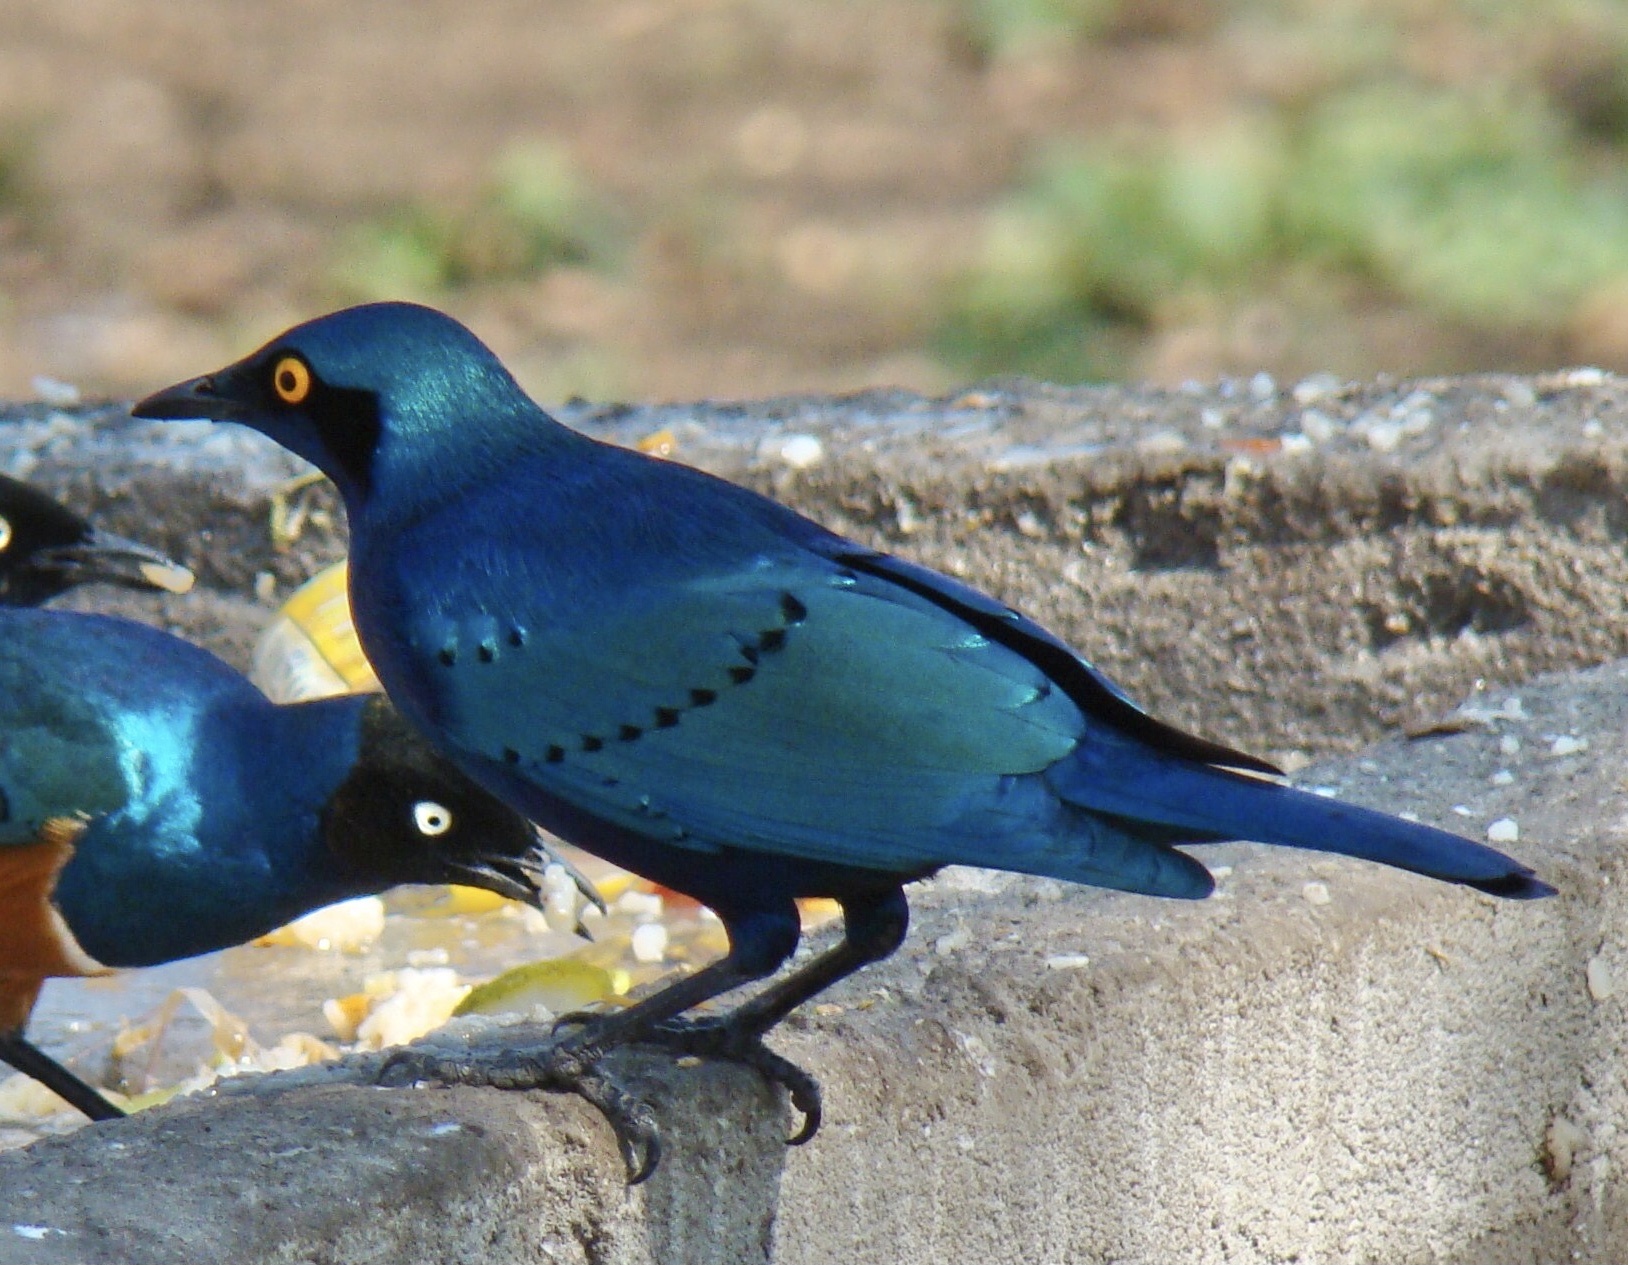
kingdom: Animalia
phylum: Chordata
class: Aves
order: Passeriformes
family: Sturnidae
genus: Lamprotornis
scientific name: Lamprotornis chalybaeus
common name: Greater blue-eared starling
